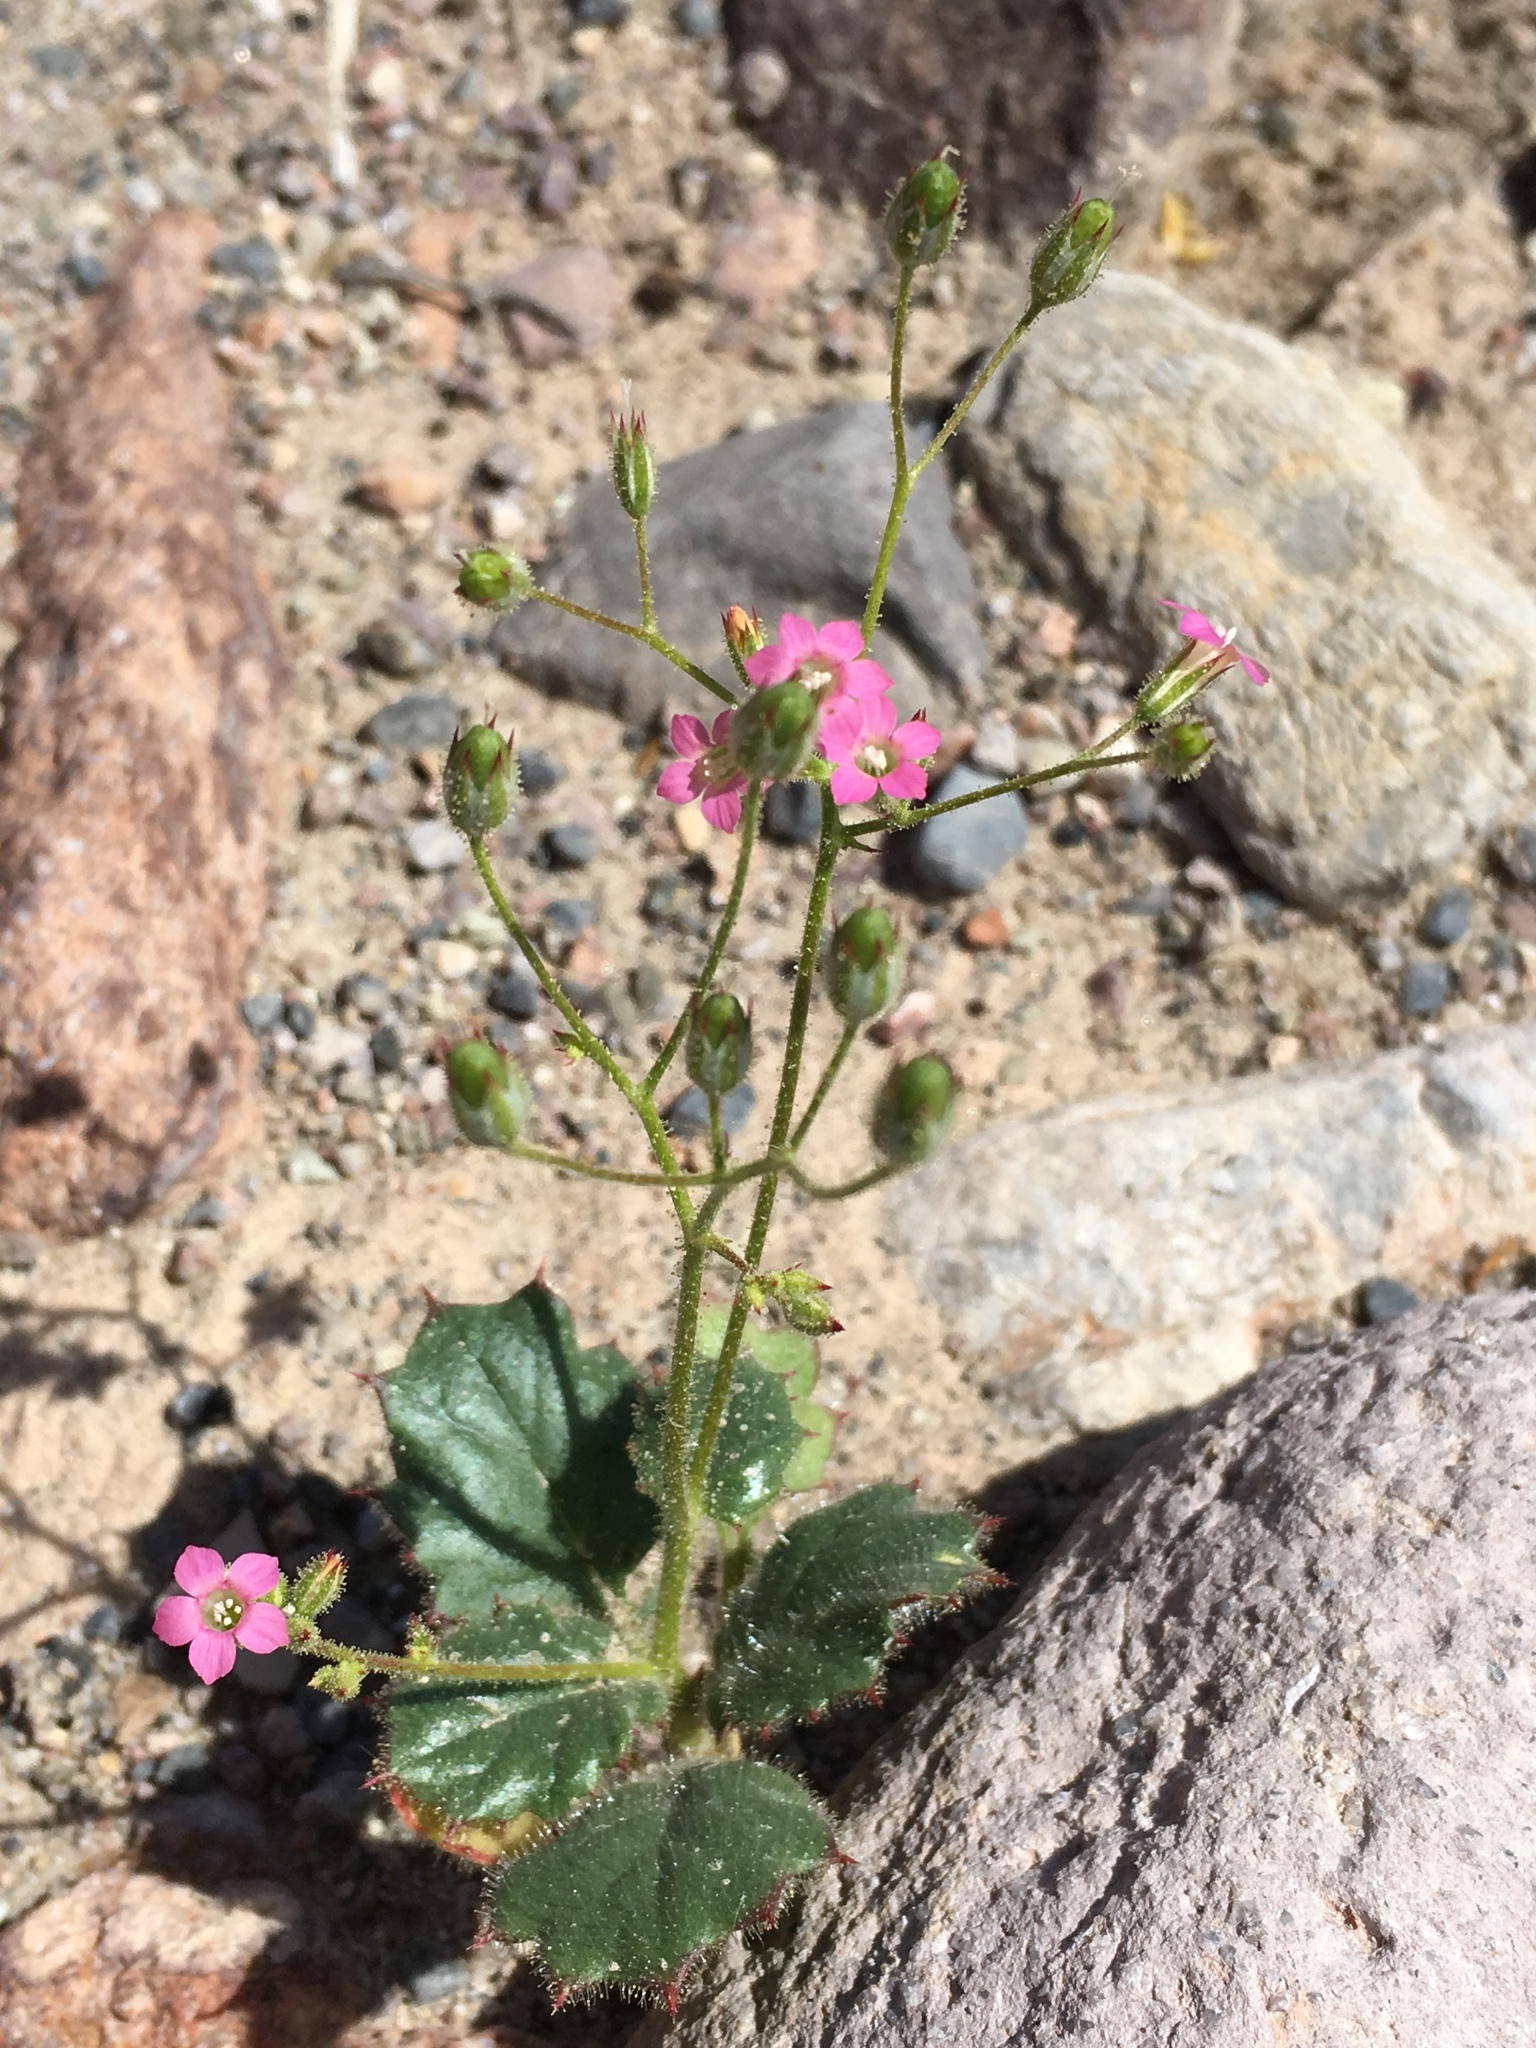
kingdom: Plantae
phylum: Tracheophyta
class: Magnoliopsida
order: Ericales
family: Polemoniaceae
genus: Aliciella
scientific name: Aliciella latifolia
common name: Broad-leaf gilia
